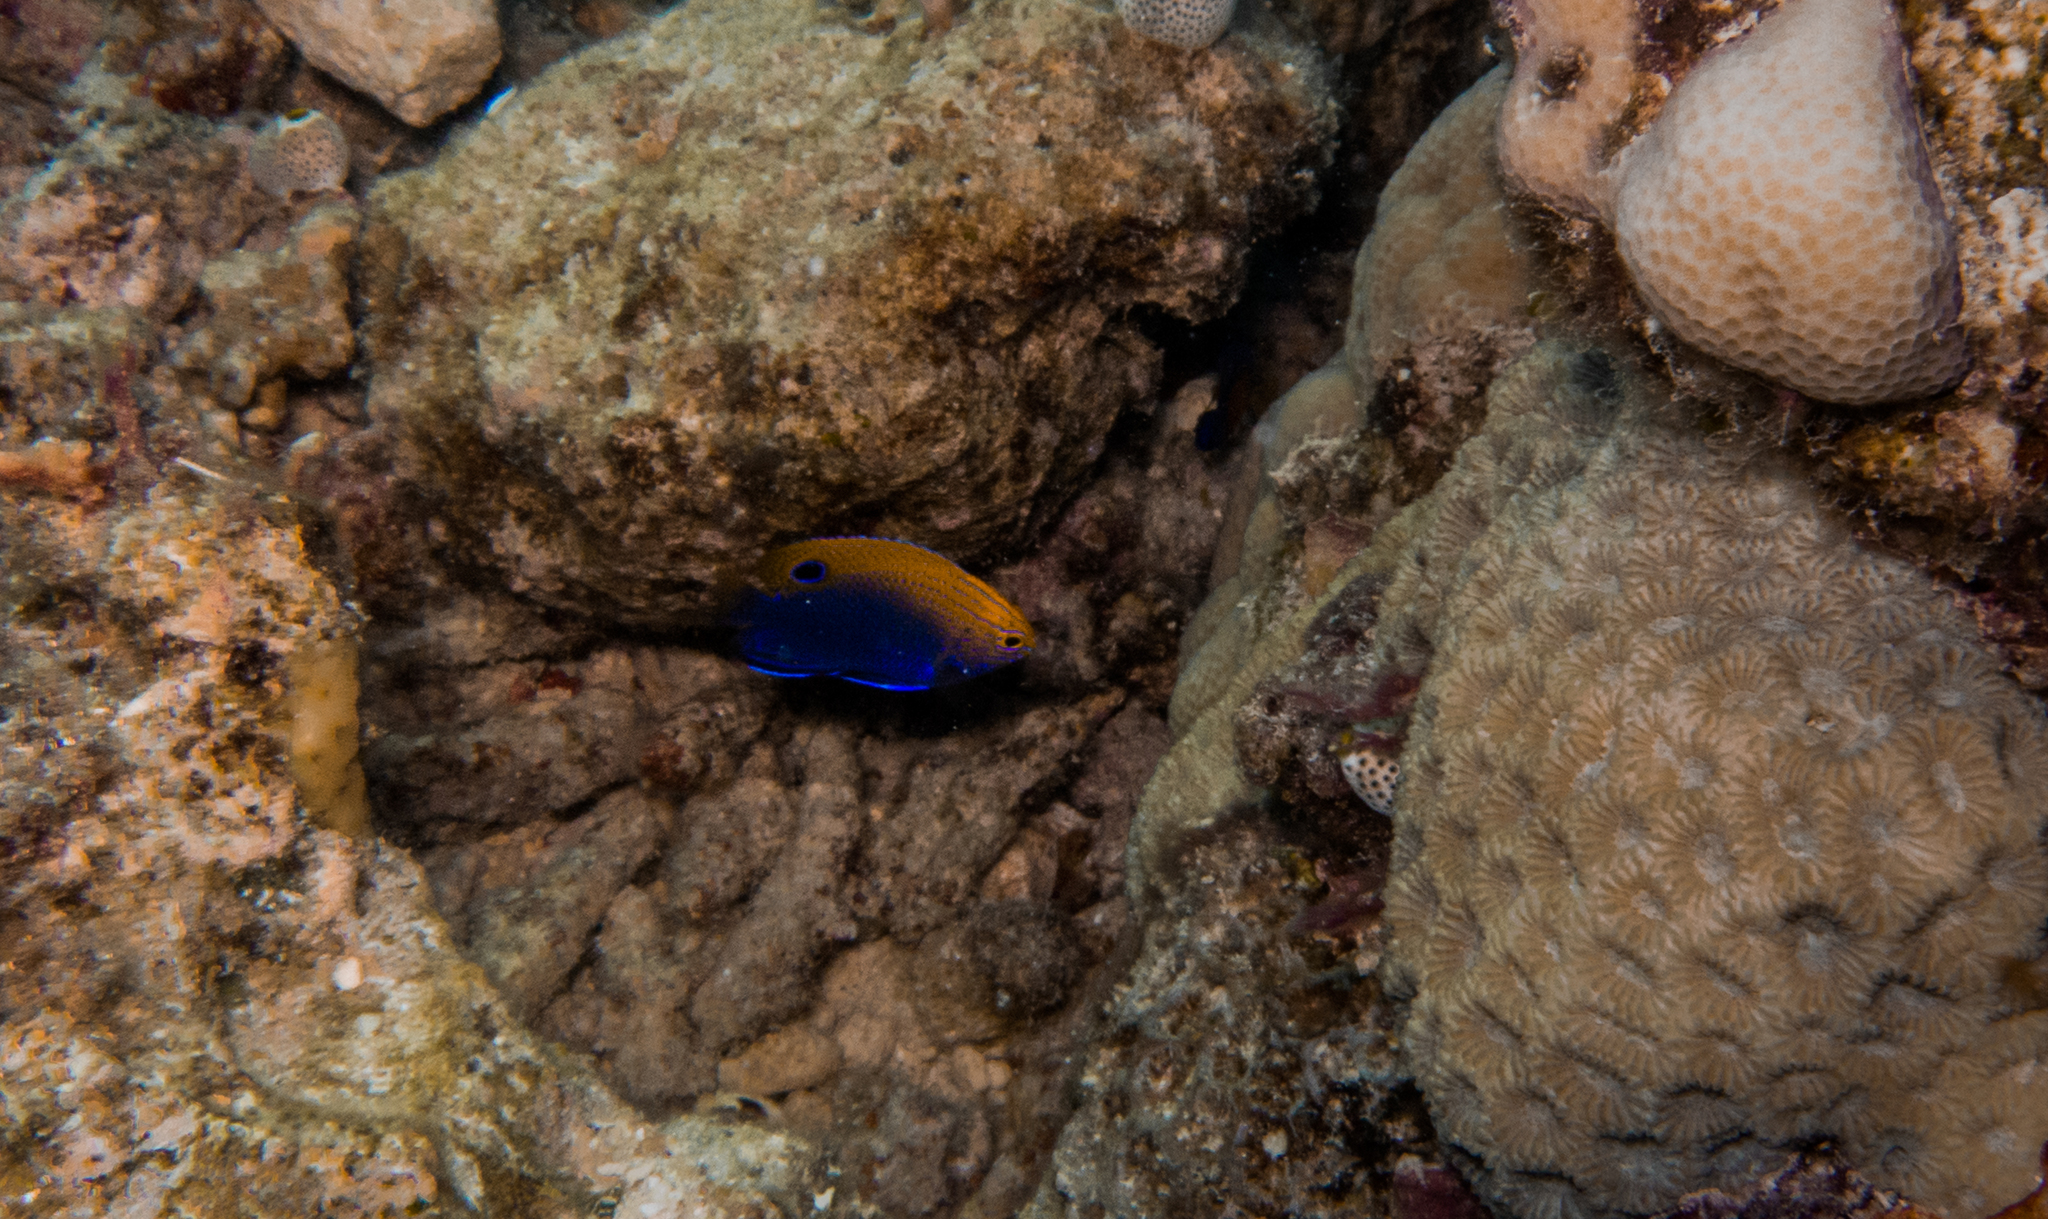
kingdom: Animalia
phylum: Chordata
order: Perciformes
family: Pomacentridae
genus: Pomacentrus
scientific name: Pomacentrus vaiuli
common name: Princess damsel
